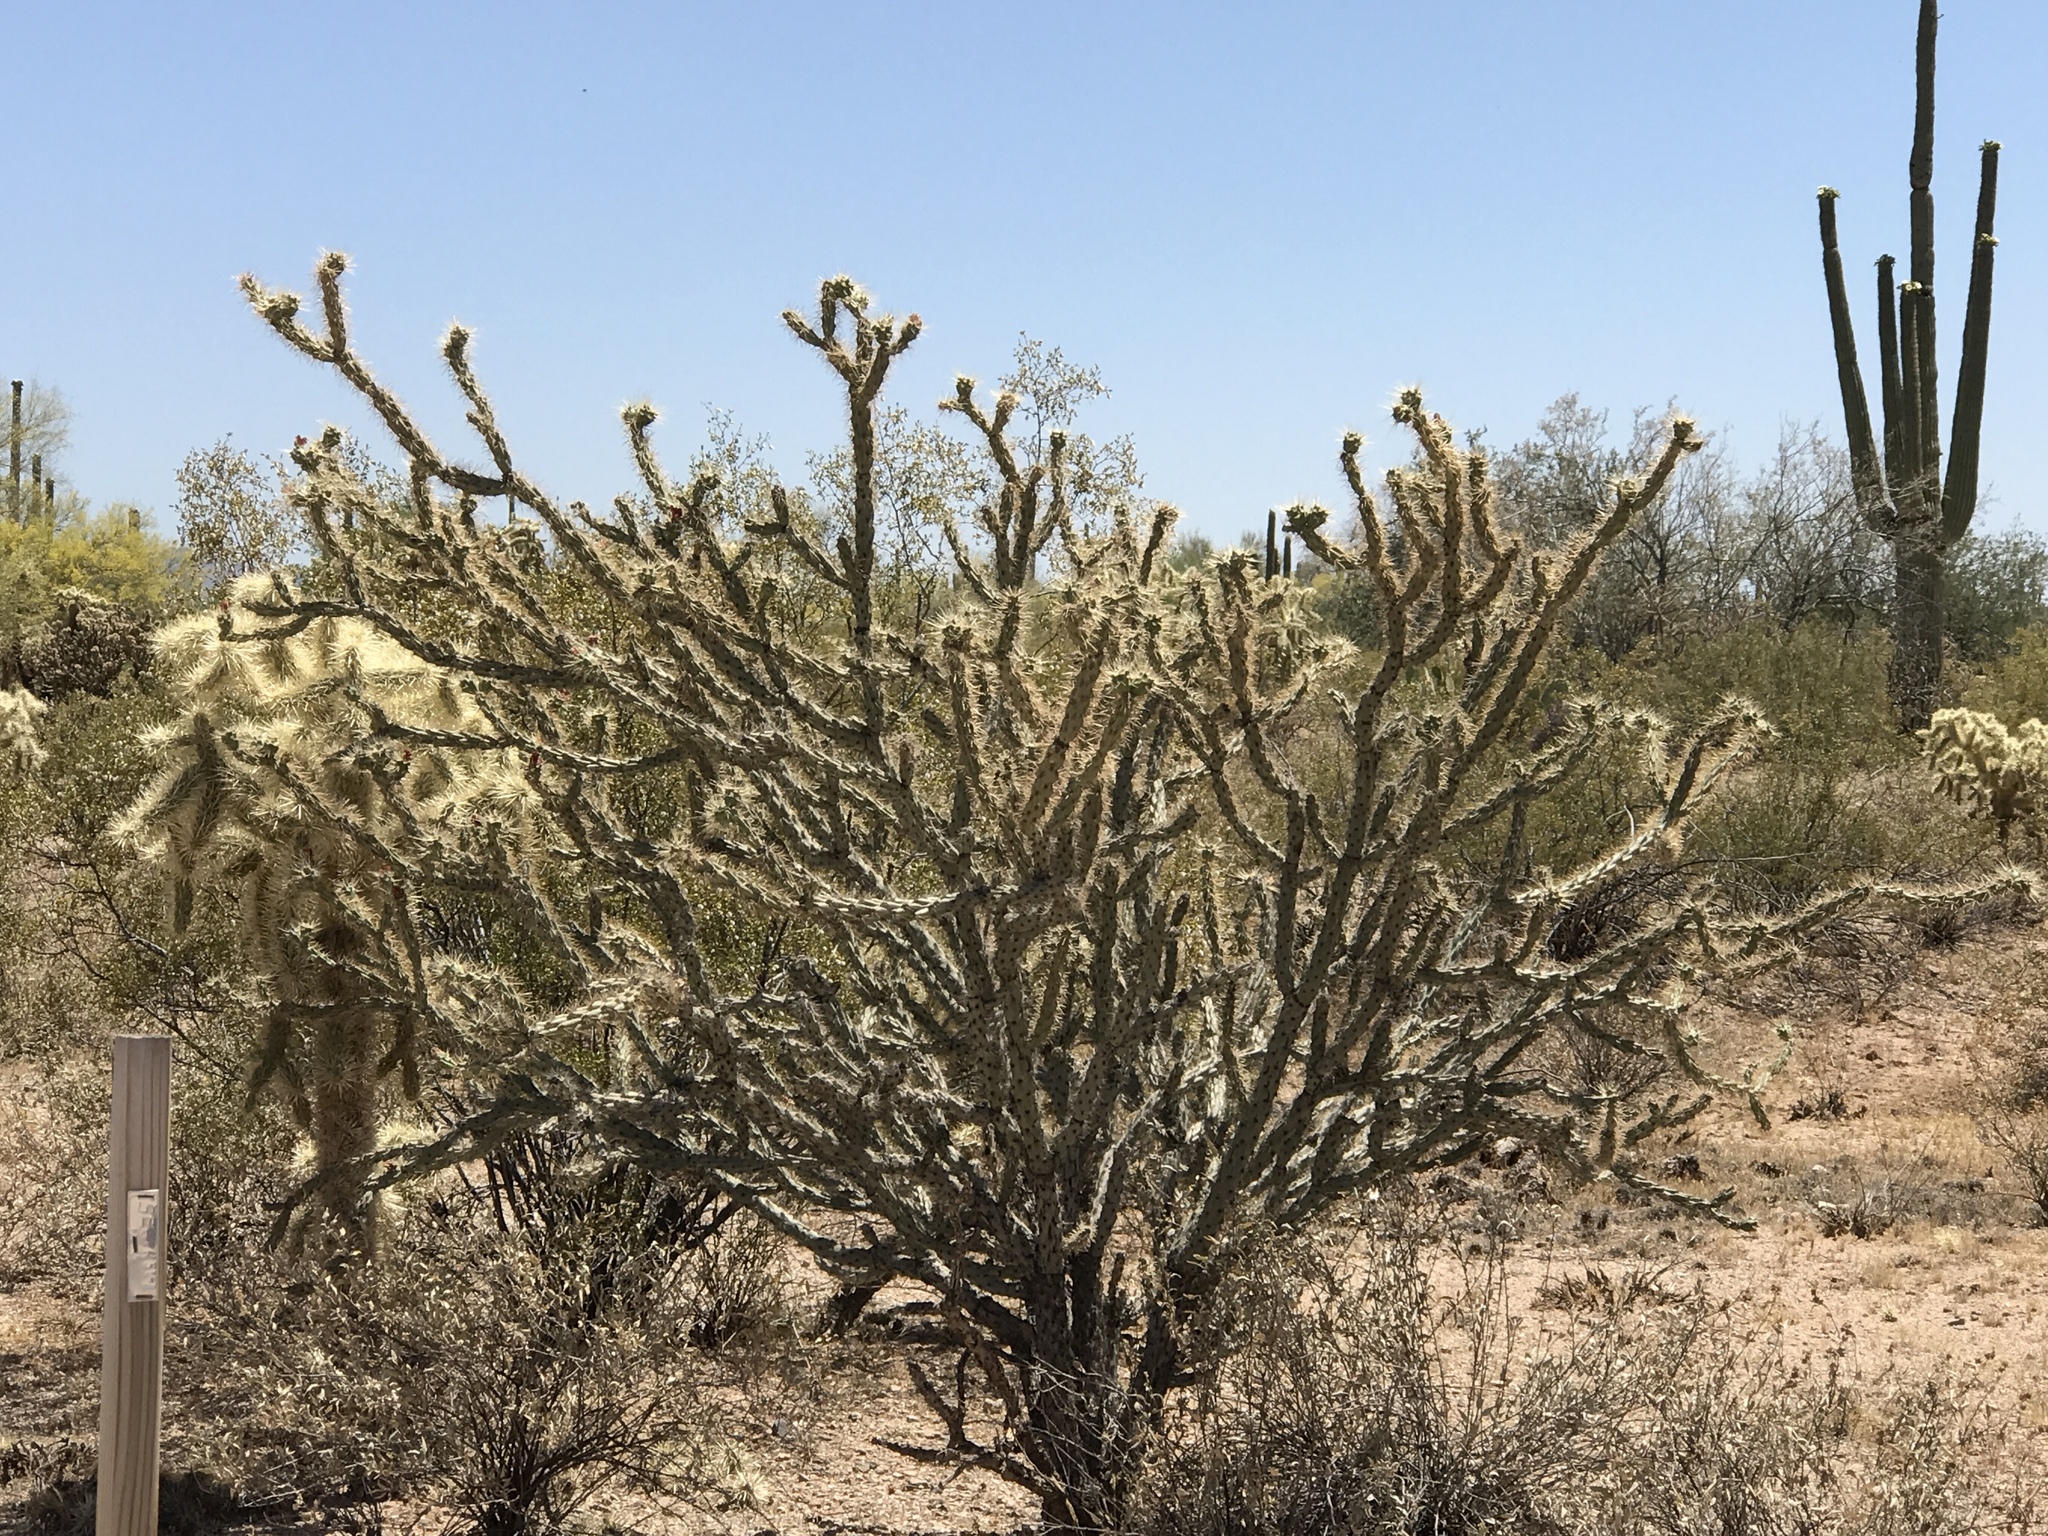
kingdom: Plantae
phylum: Tracheophyta
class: Magnoliopsida
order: Caryophyllales
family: Cactaceae
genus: Cylindropuntia
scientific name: Cylindropuntia acanthocarpa
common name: Buckhorn cholla
